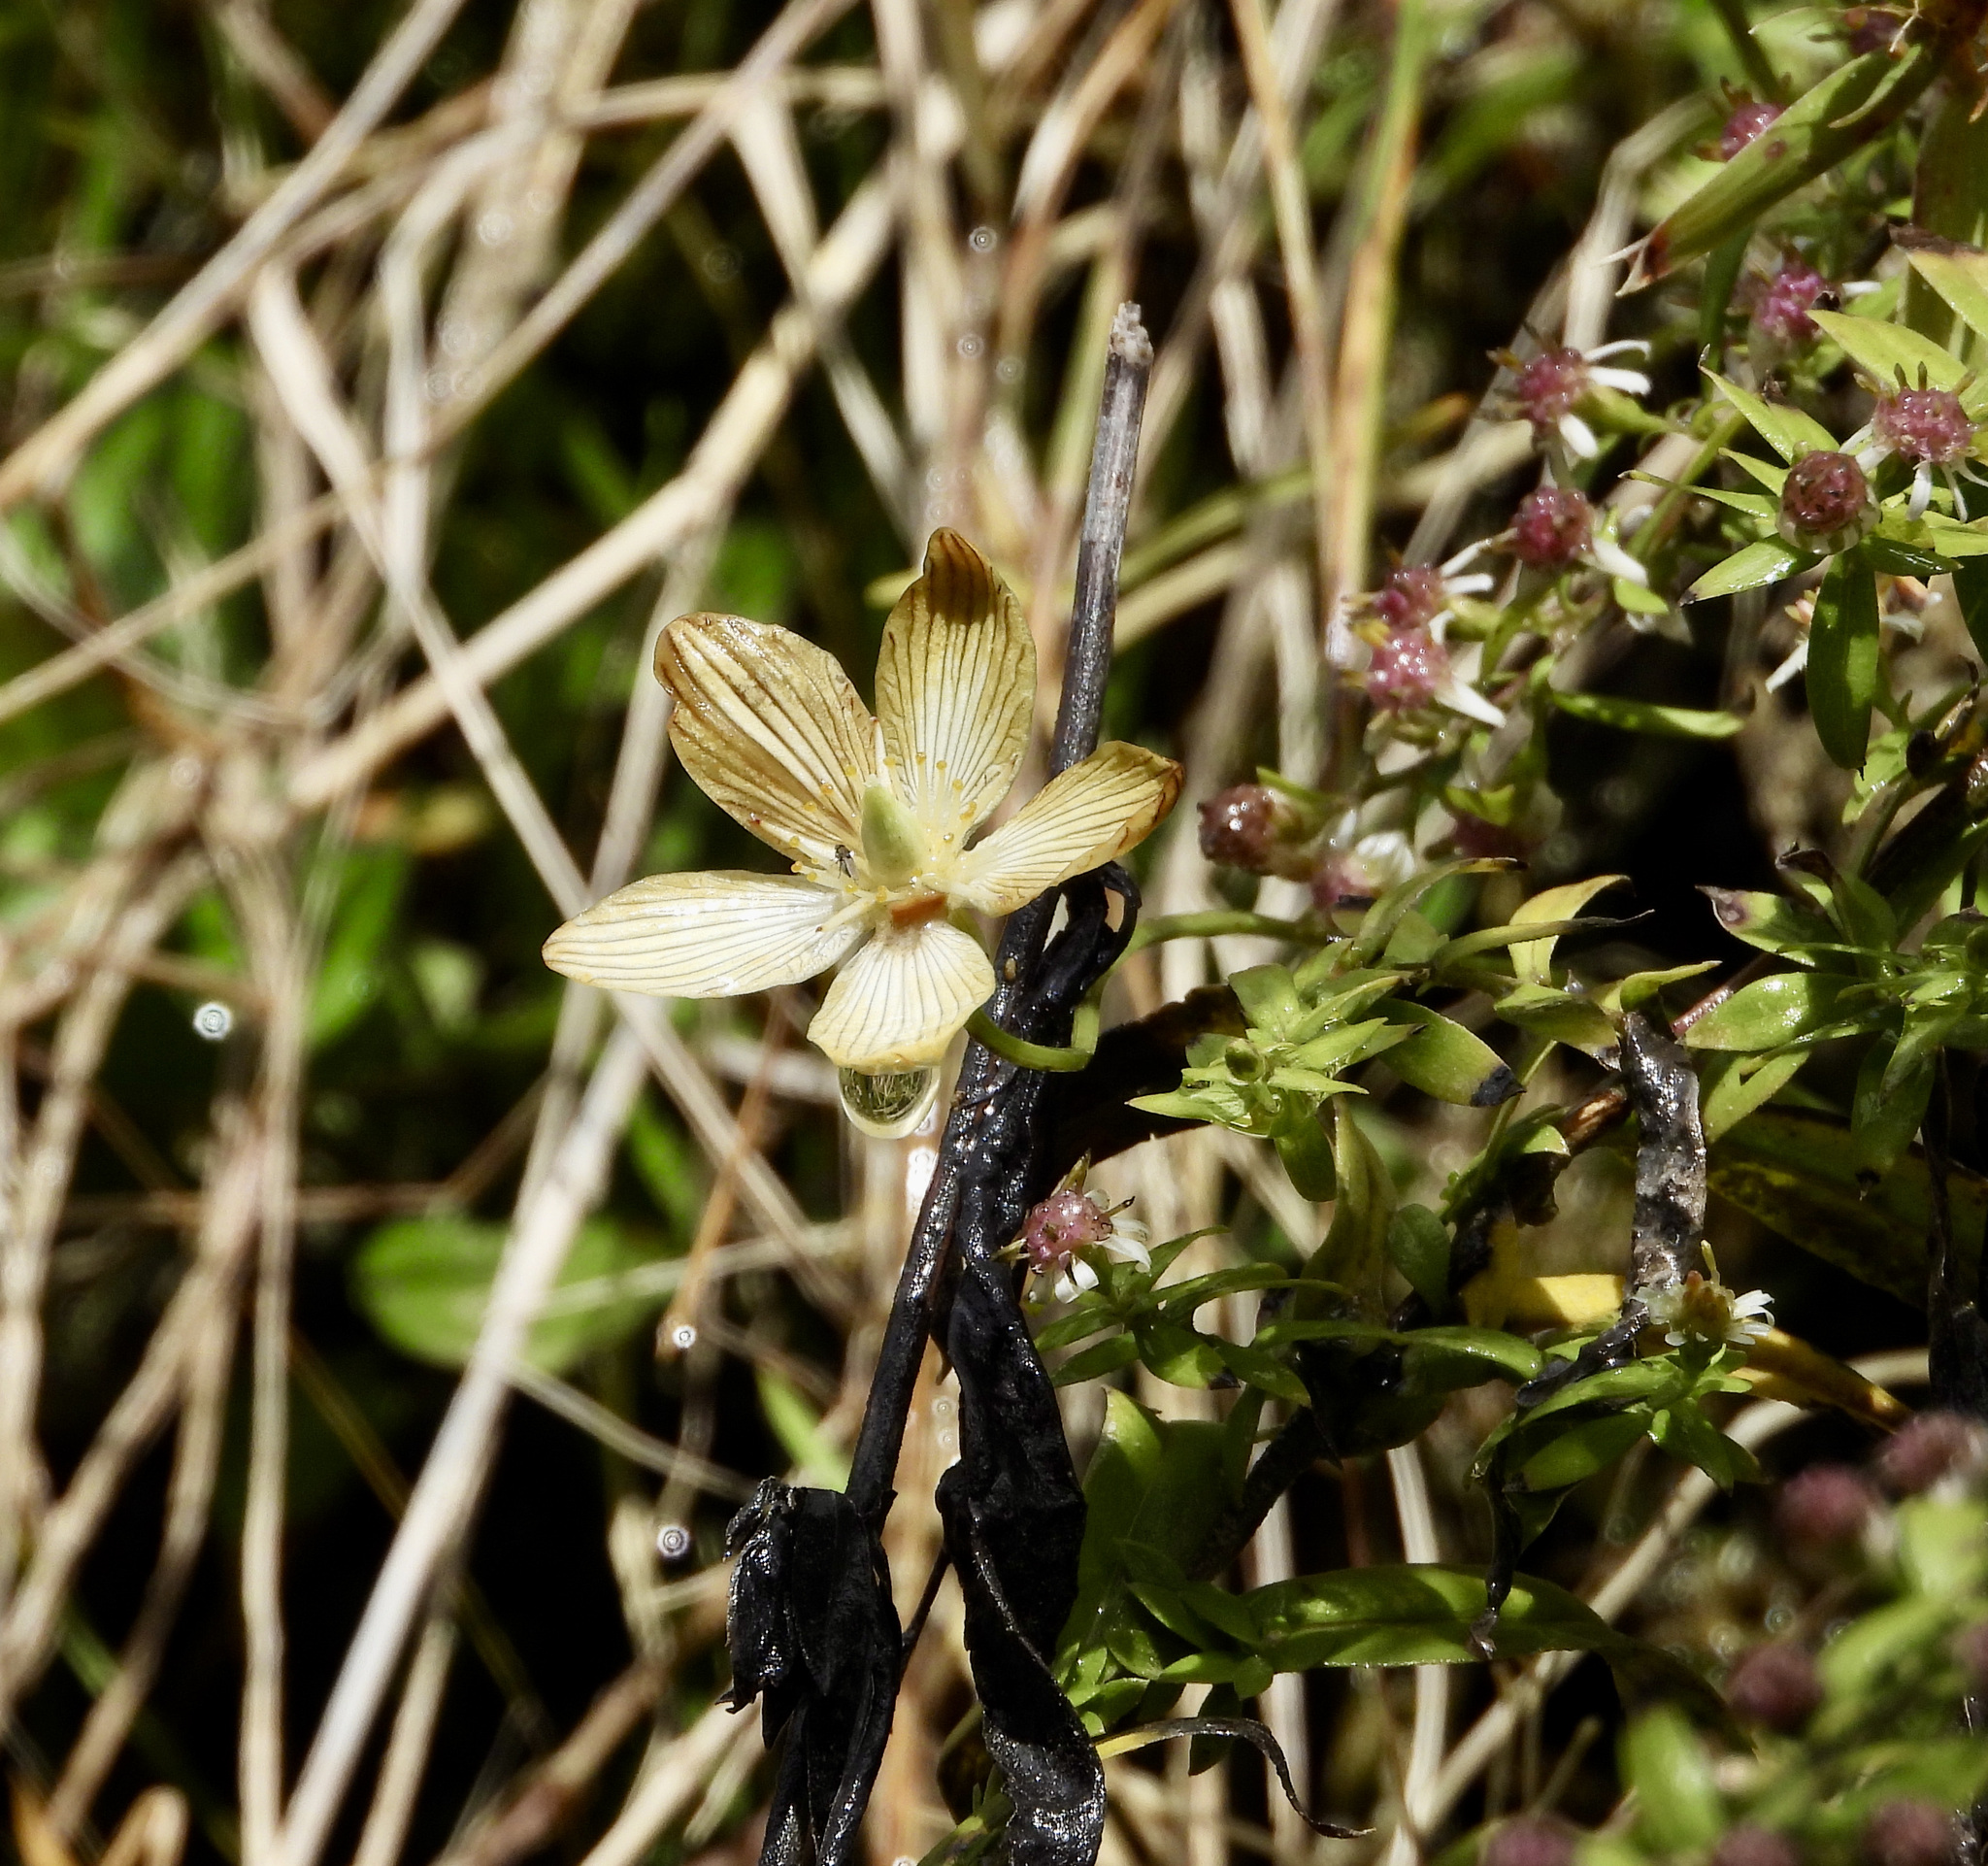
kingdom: Plantae
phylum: Tracheophyta
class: Magnoliopsida
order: Celastrales
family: Parnassiaceae
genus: Parnassia
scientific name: Parnassia glauca
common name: American grass-of-parnassus
